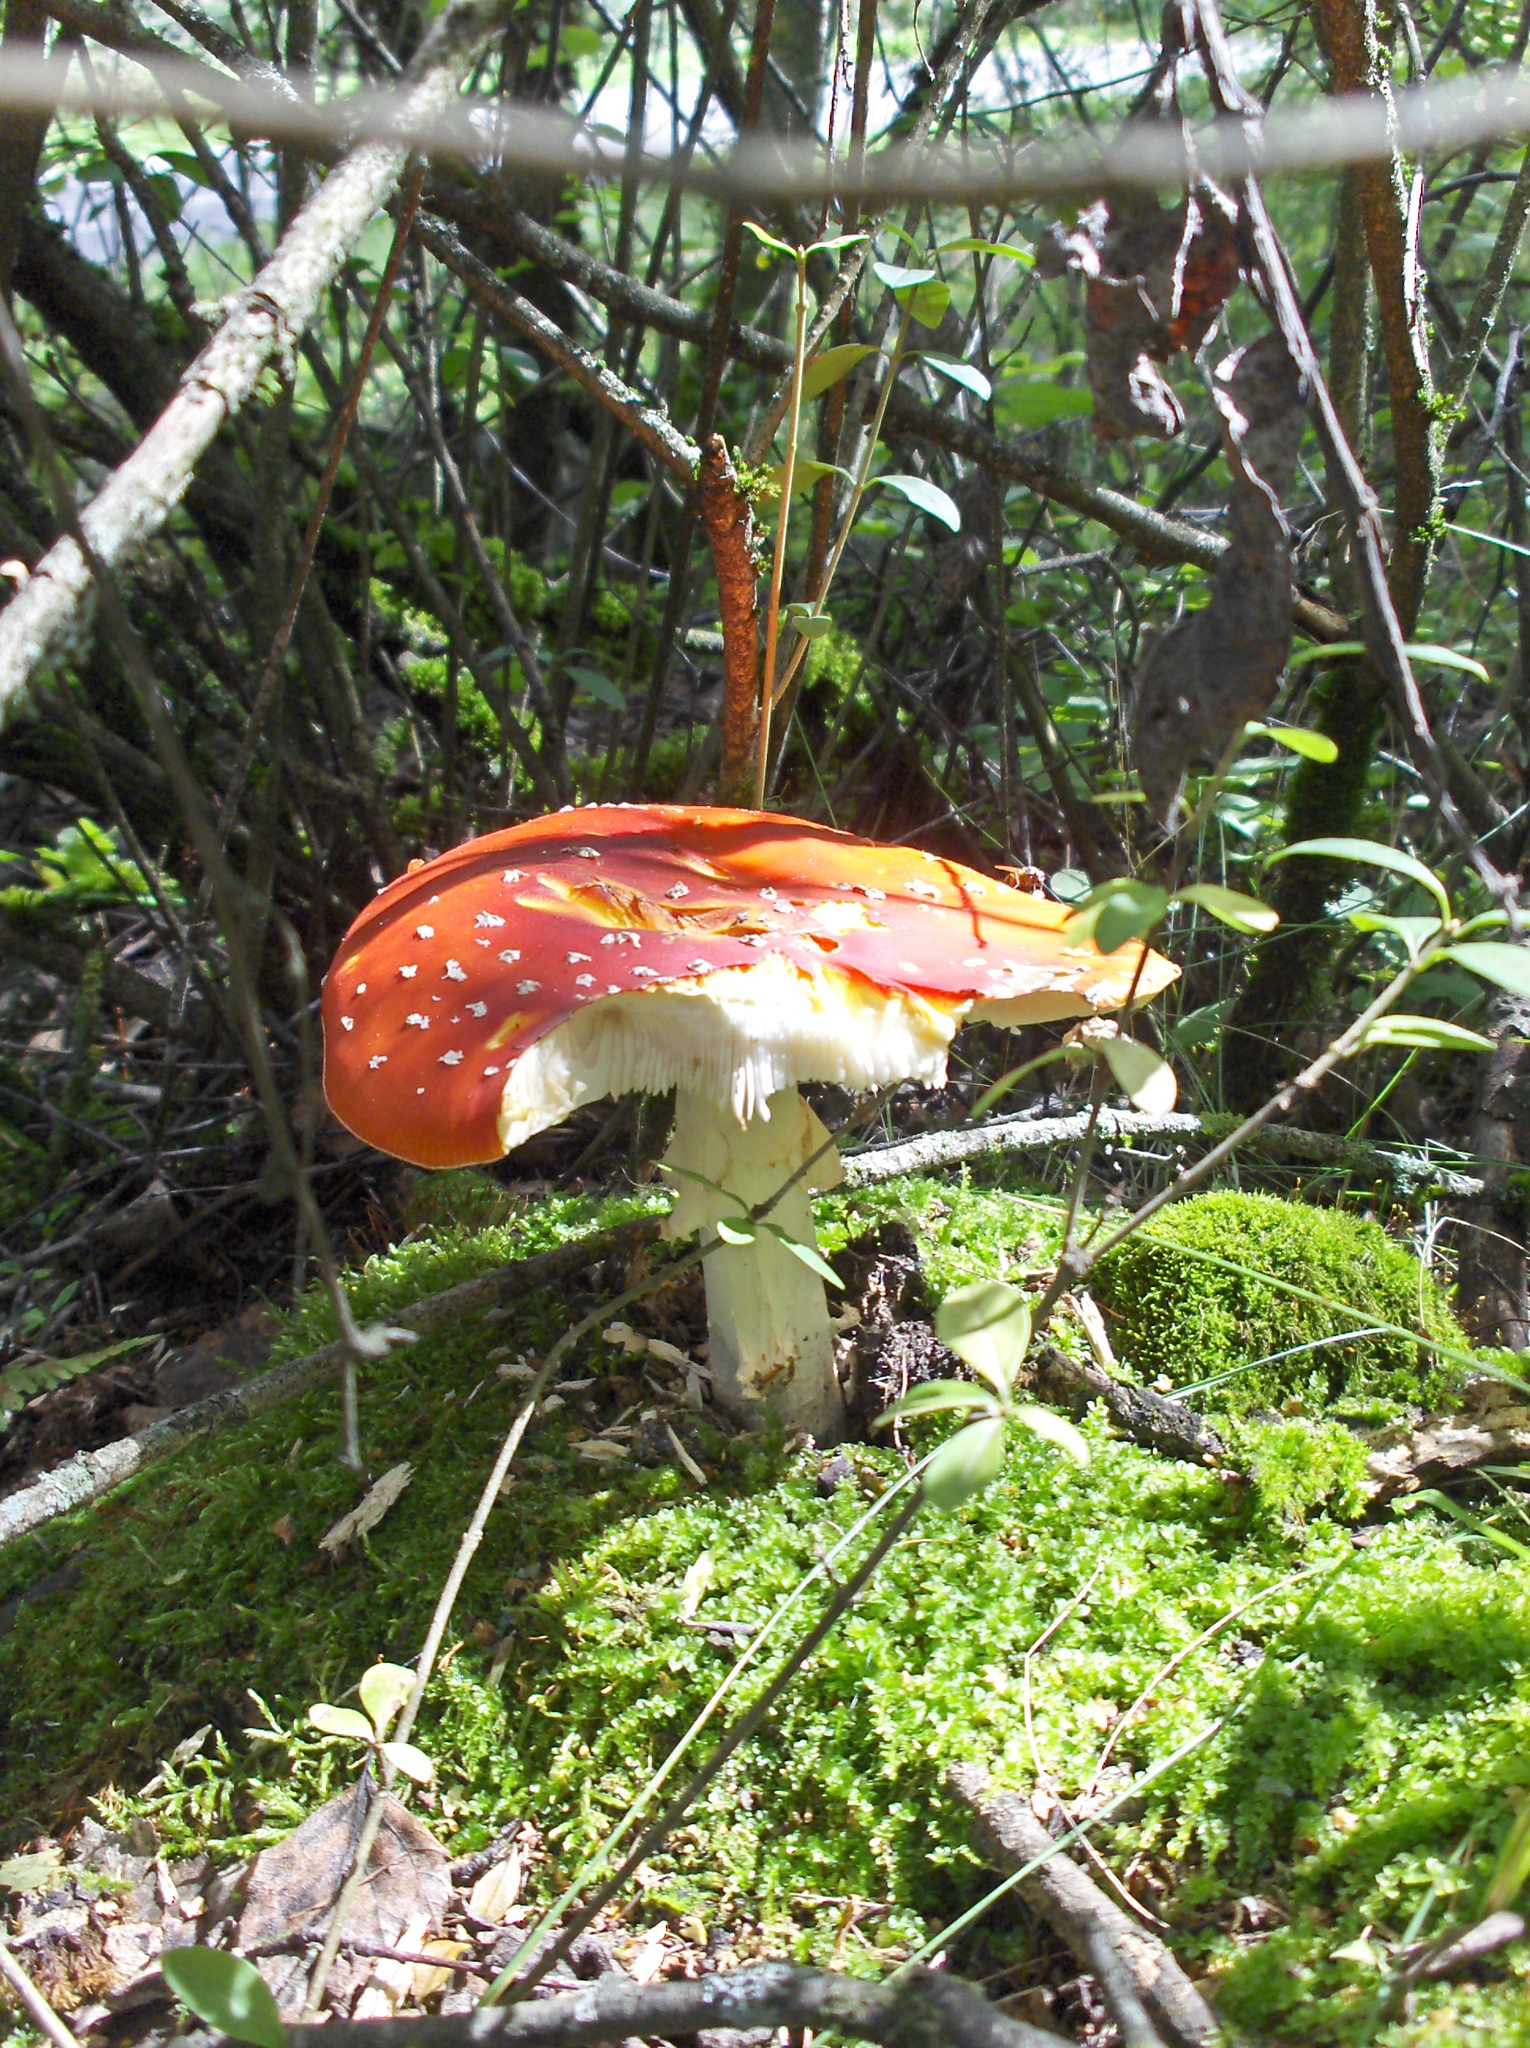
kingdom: Fungi
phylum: Basidiomycota
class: Agaricomycetes
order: Agaricales
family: Amanitaceae
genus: Amanita
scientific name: Amanita muscaria
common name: Fly agaric
